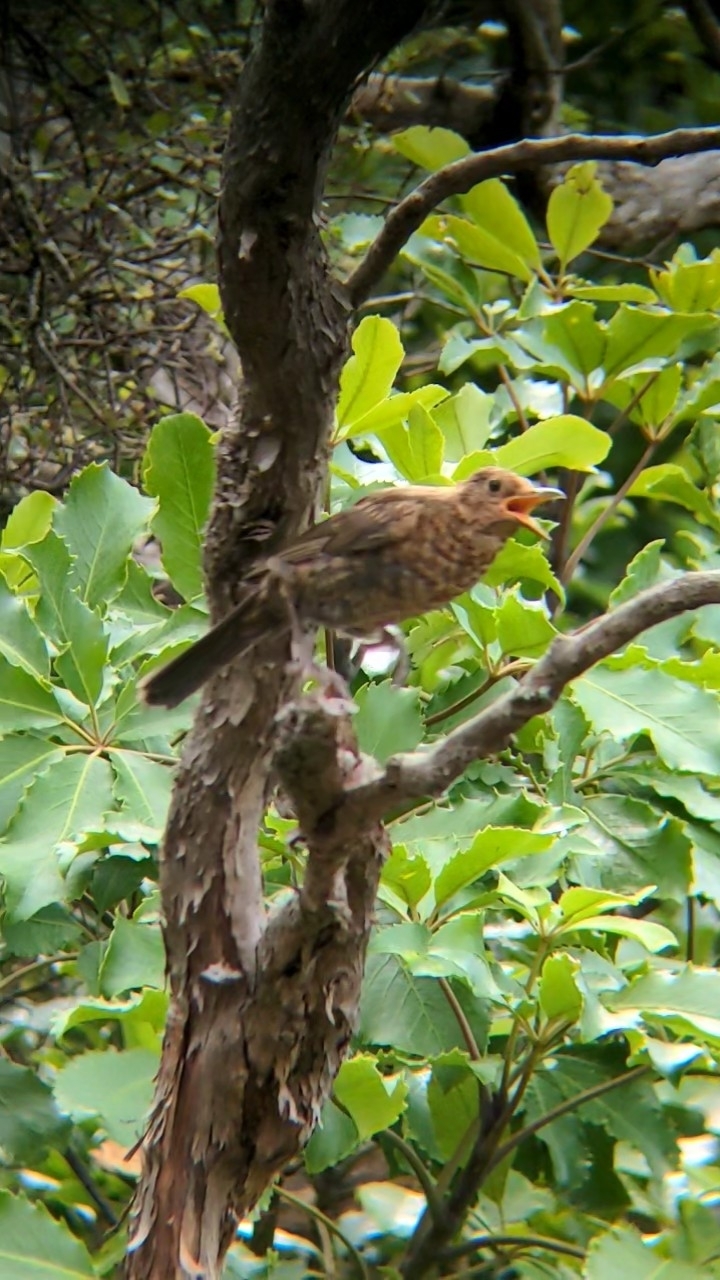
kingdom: Animalia
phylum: Chordata
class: Aves
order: Passeriformes
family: Turdidae
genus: Turdus
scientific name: Turdus merula
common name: Common blackbird
